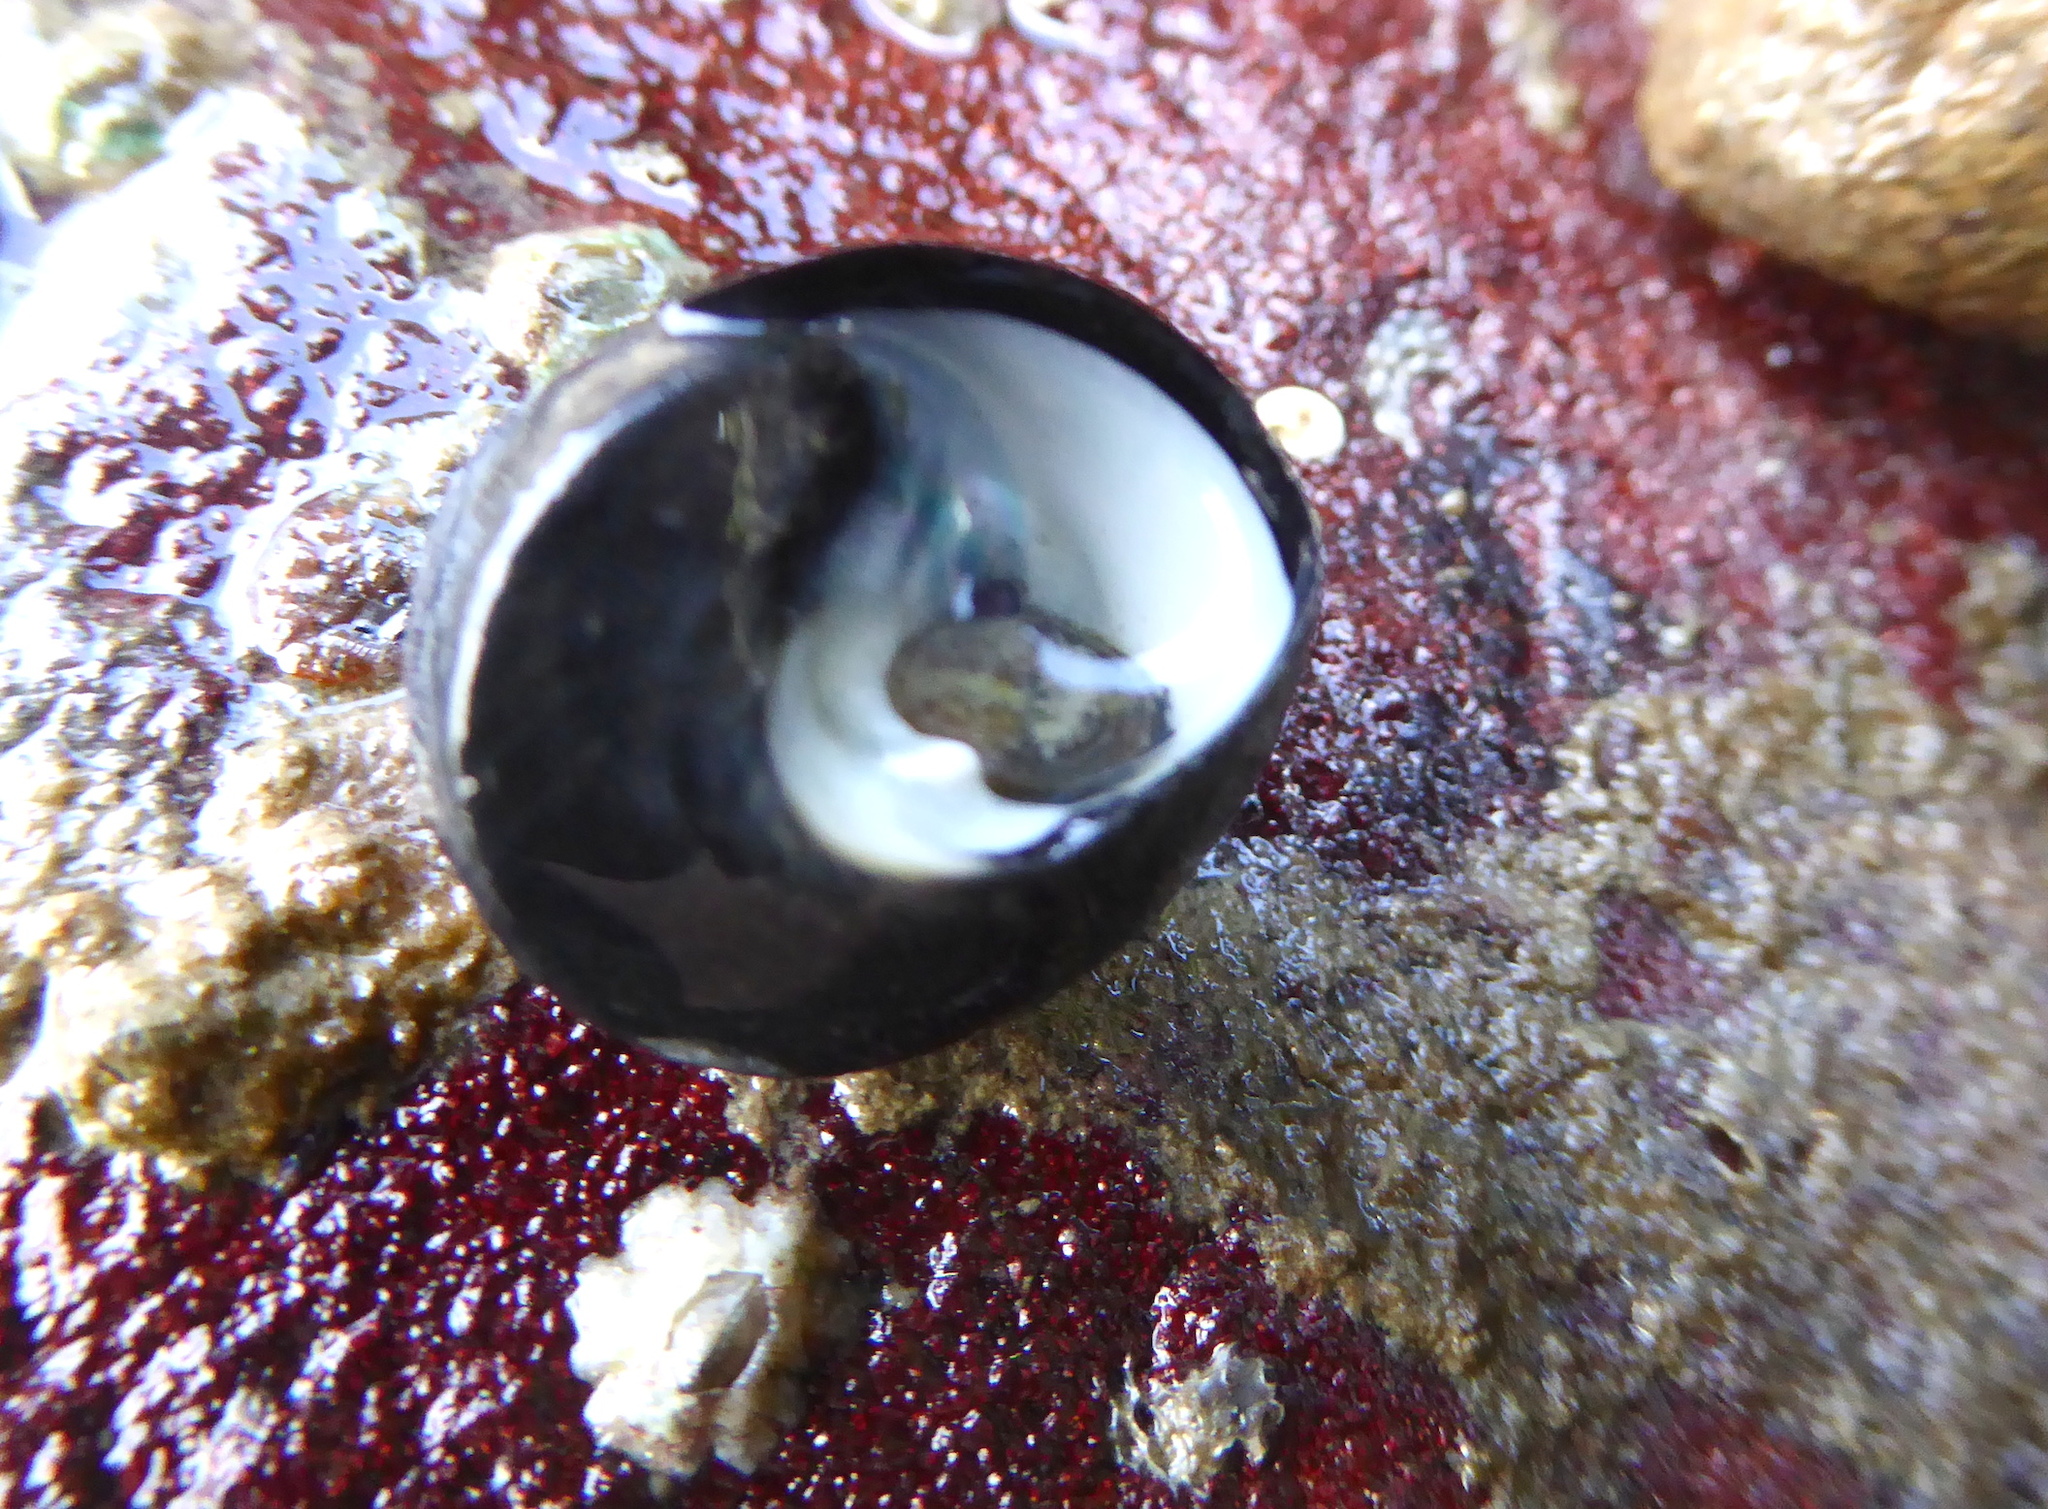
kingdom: Animalia
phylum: Mollusca
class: Gastropoda
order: Trochida
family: Tegulidae
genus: Tegula
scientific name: Tegula funebralis
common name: Black tegula
